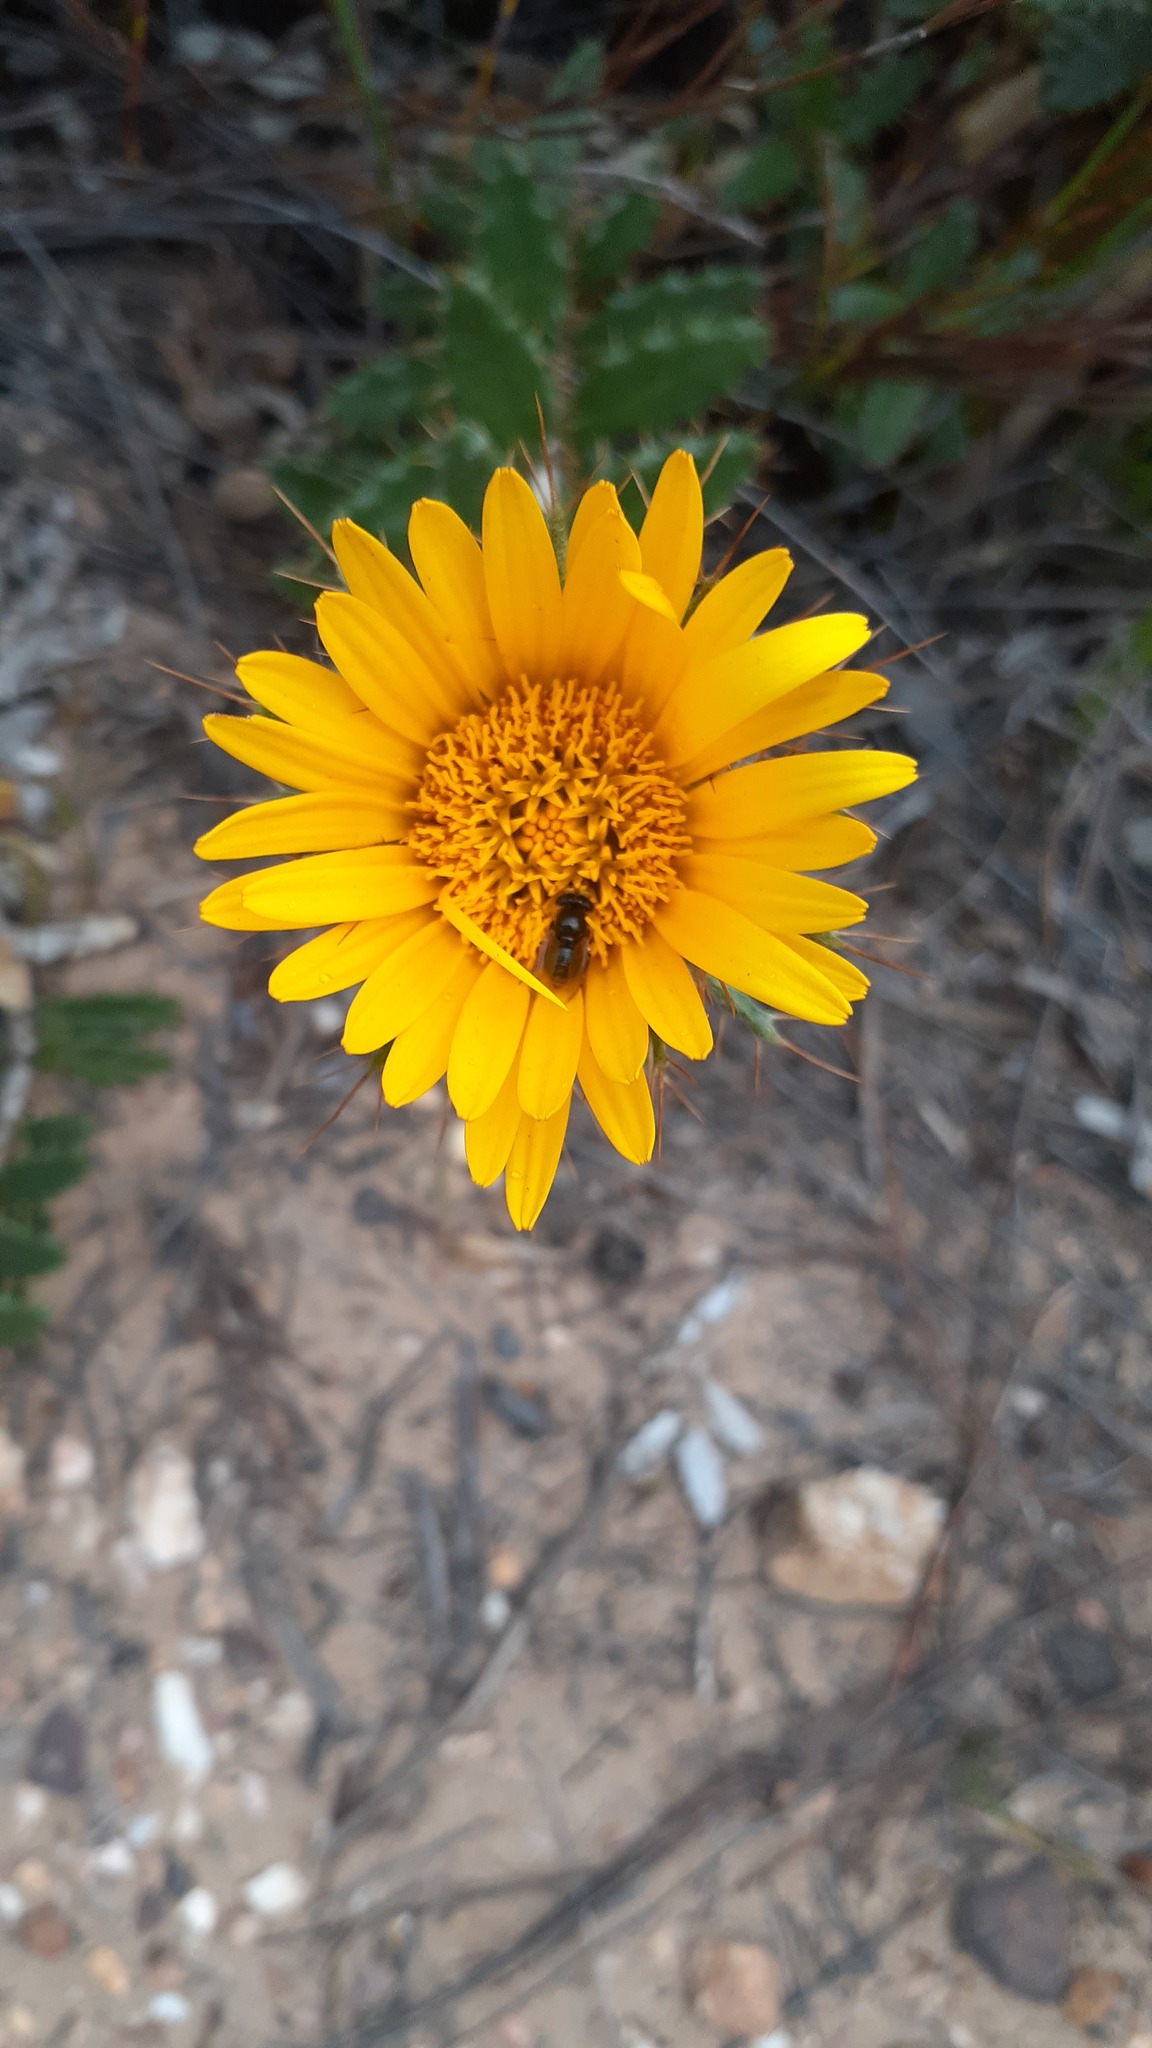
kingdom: Plantae
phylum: Tracheophyta
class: Magnoliopsida
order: Asterales
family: Asteraceae
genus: Berkheya
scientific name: Berkheya barbata
